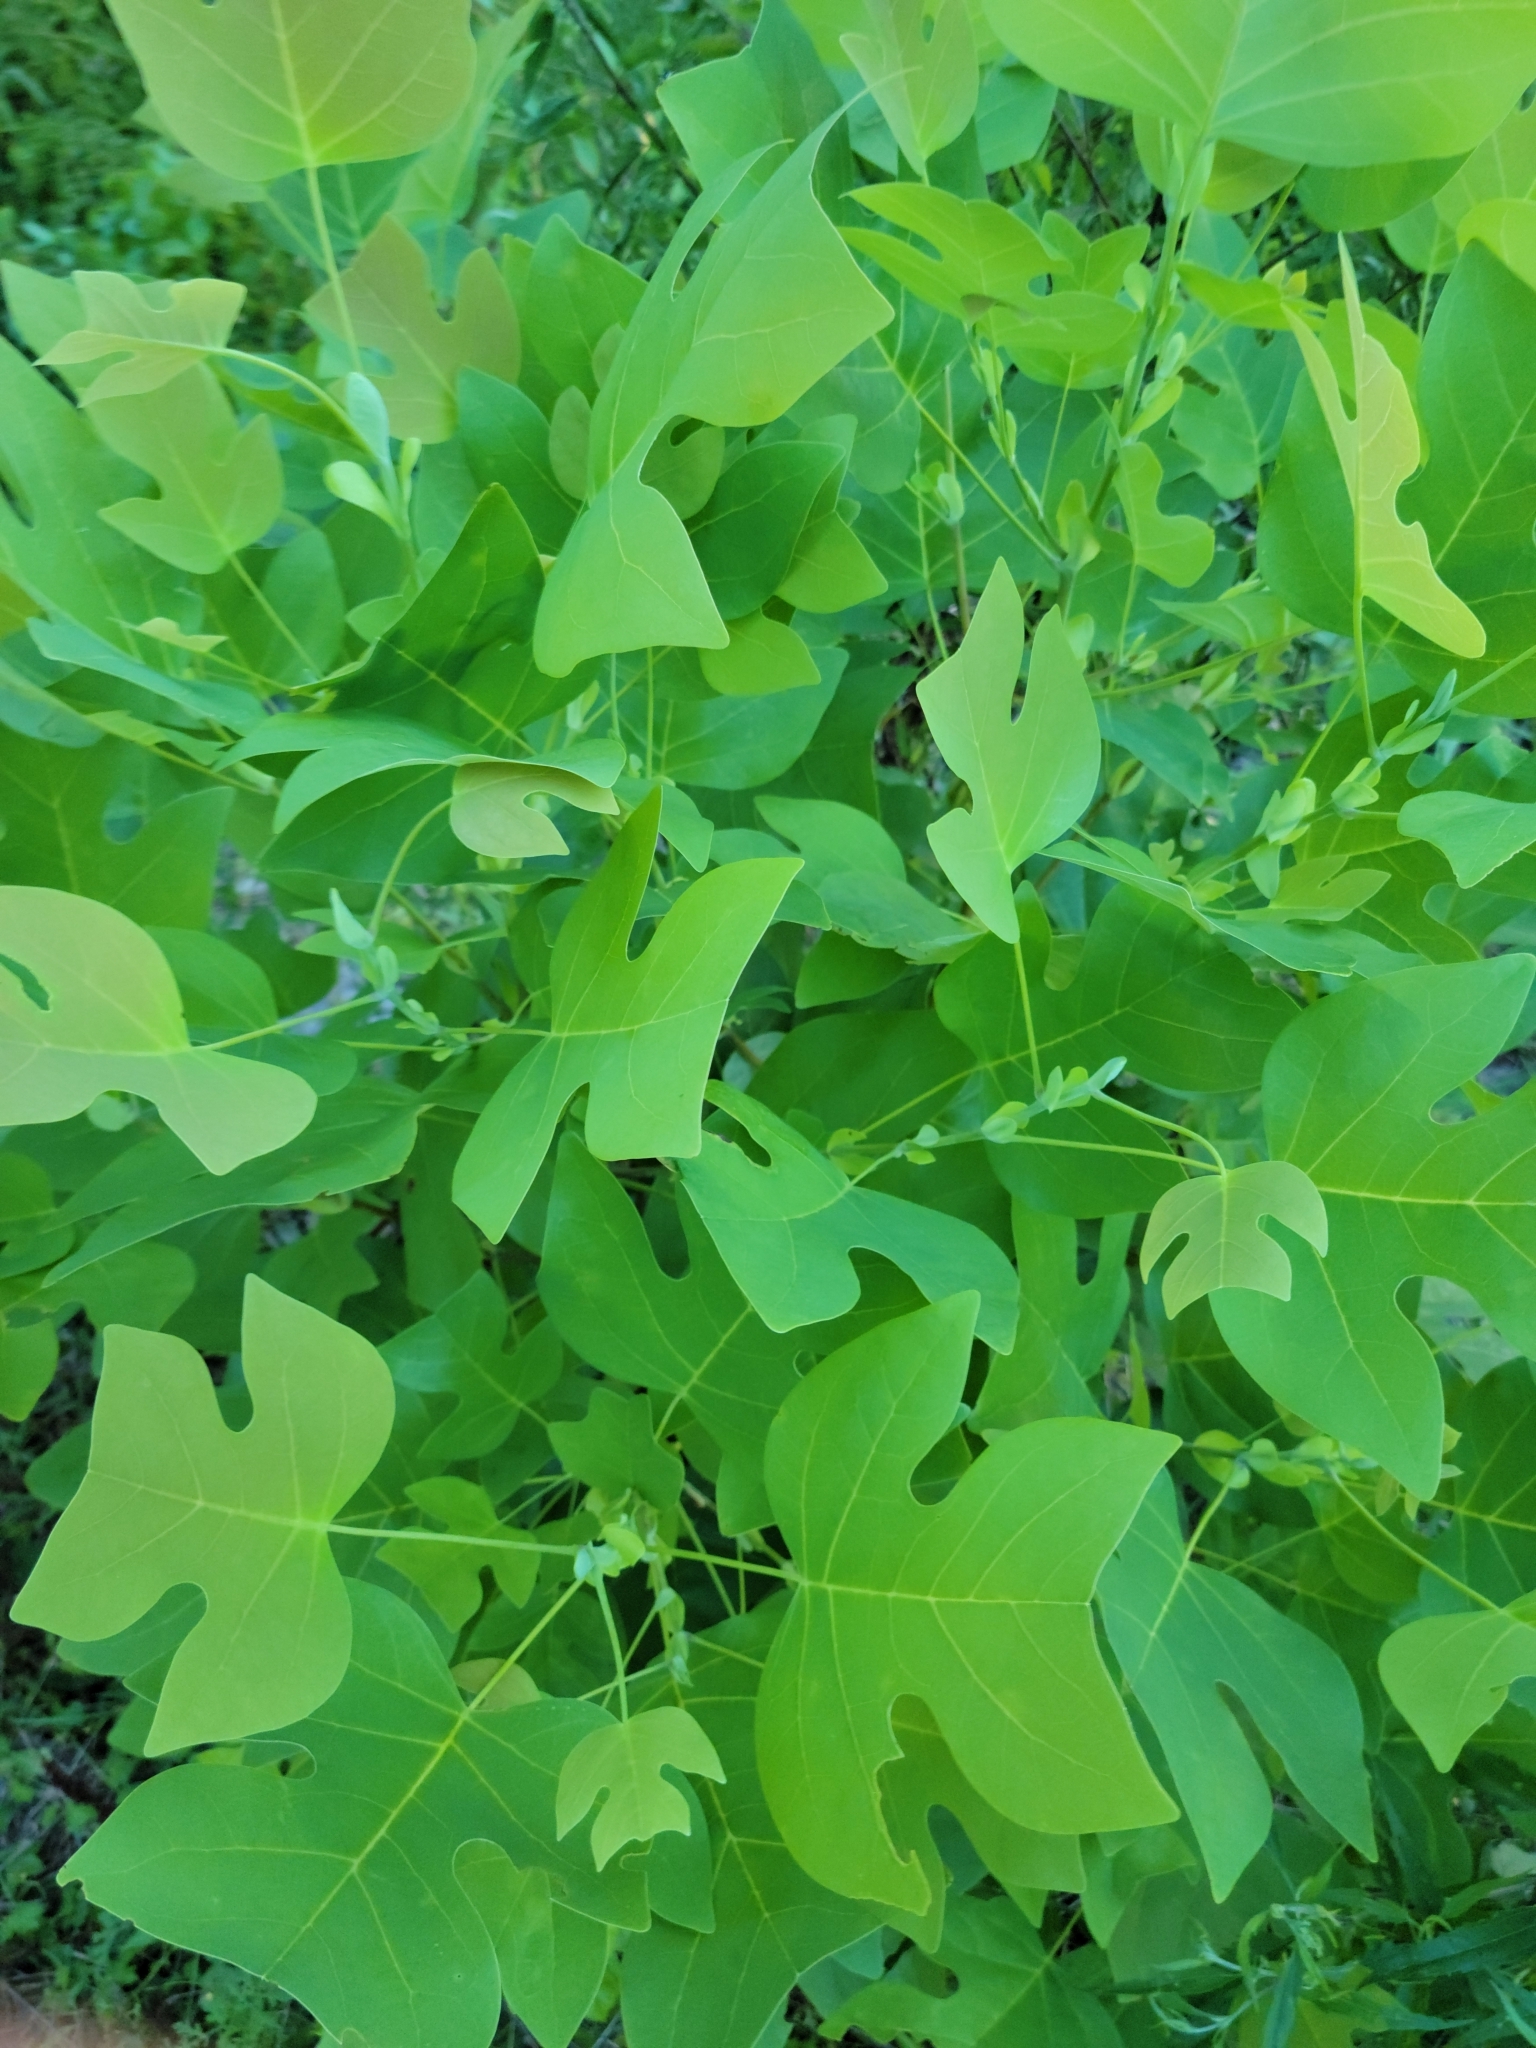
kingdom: Plantae
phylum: Tracheophyta
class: Magnoliopsida
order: Magnoliales
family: Magnoliaceae
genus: Liriodendron
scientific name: Liriodendron tulipifera
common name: Tulip tree
